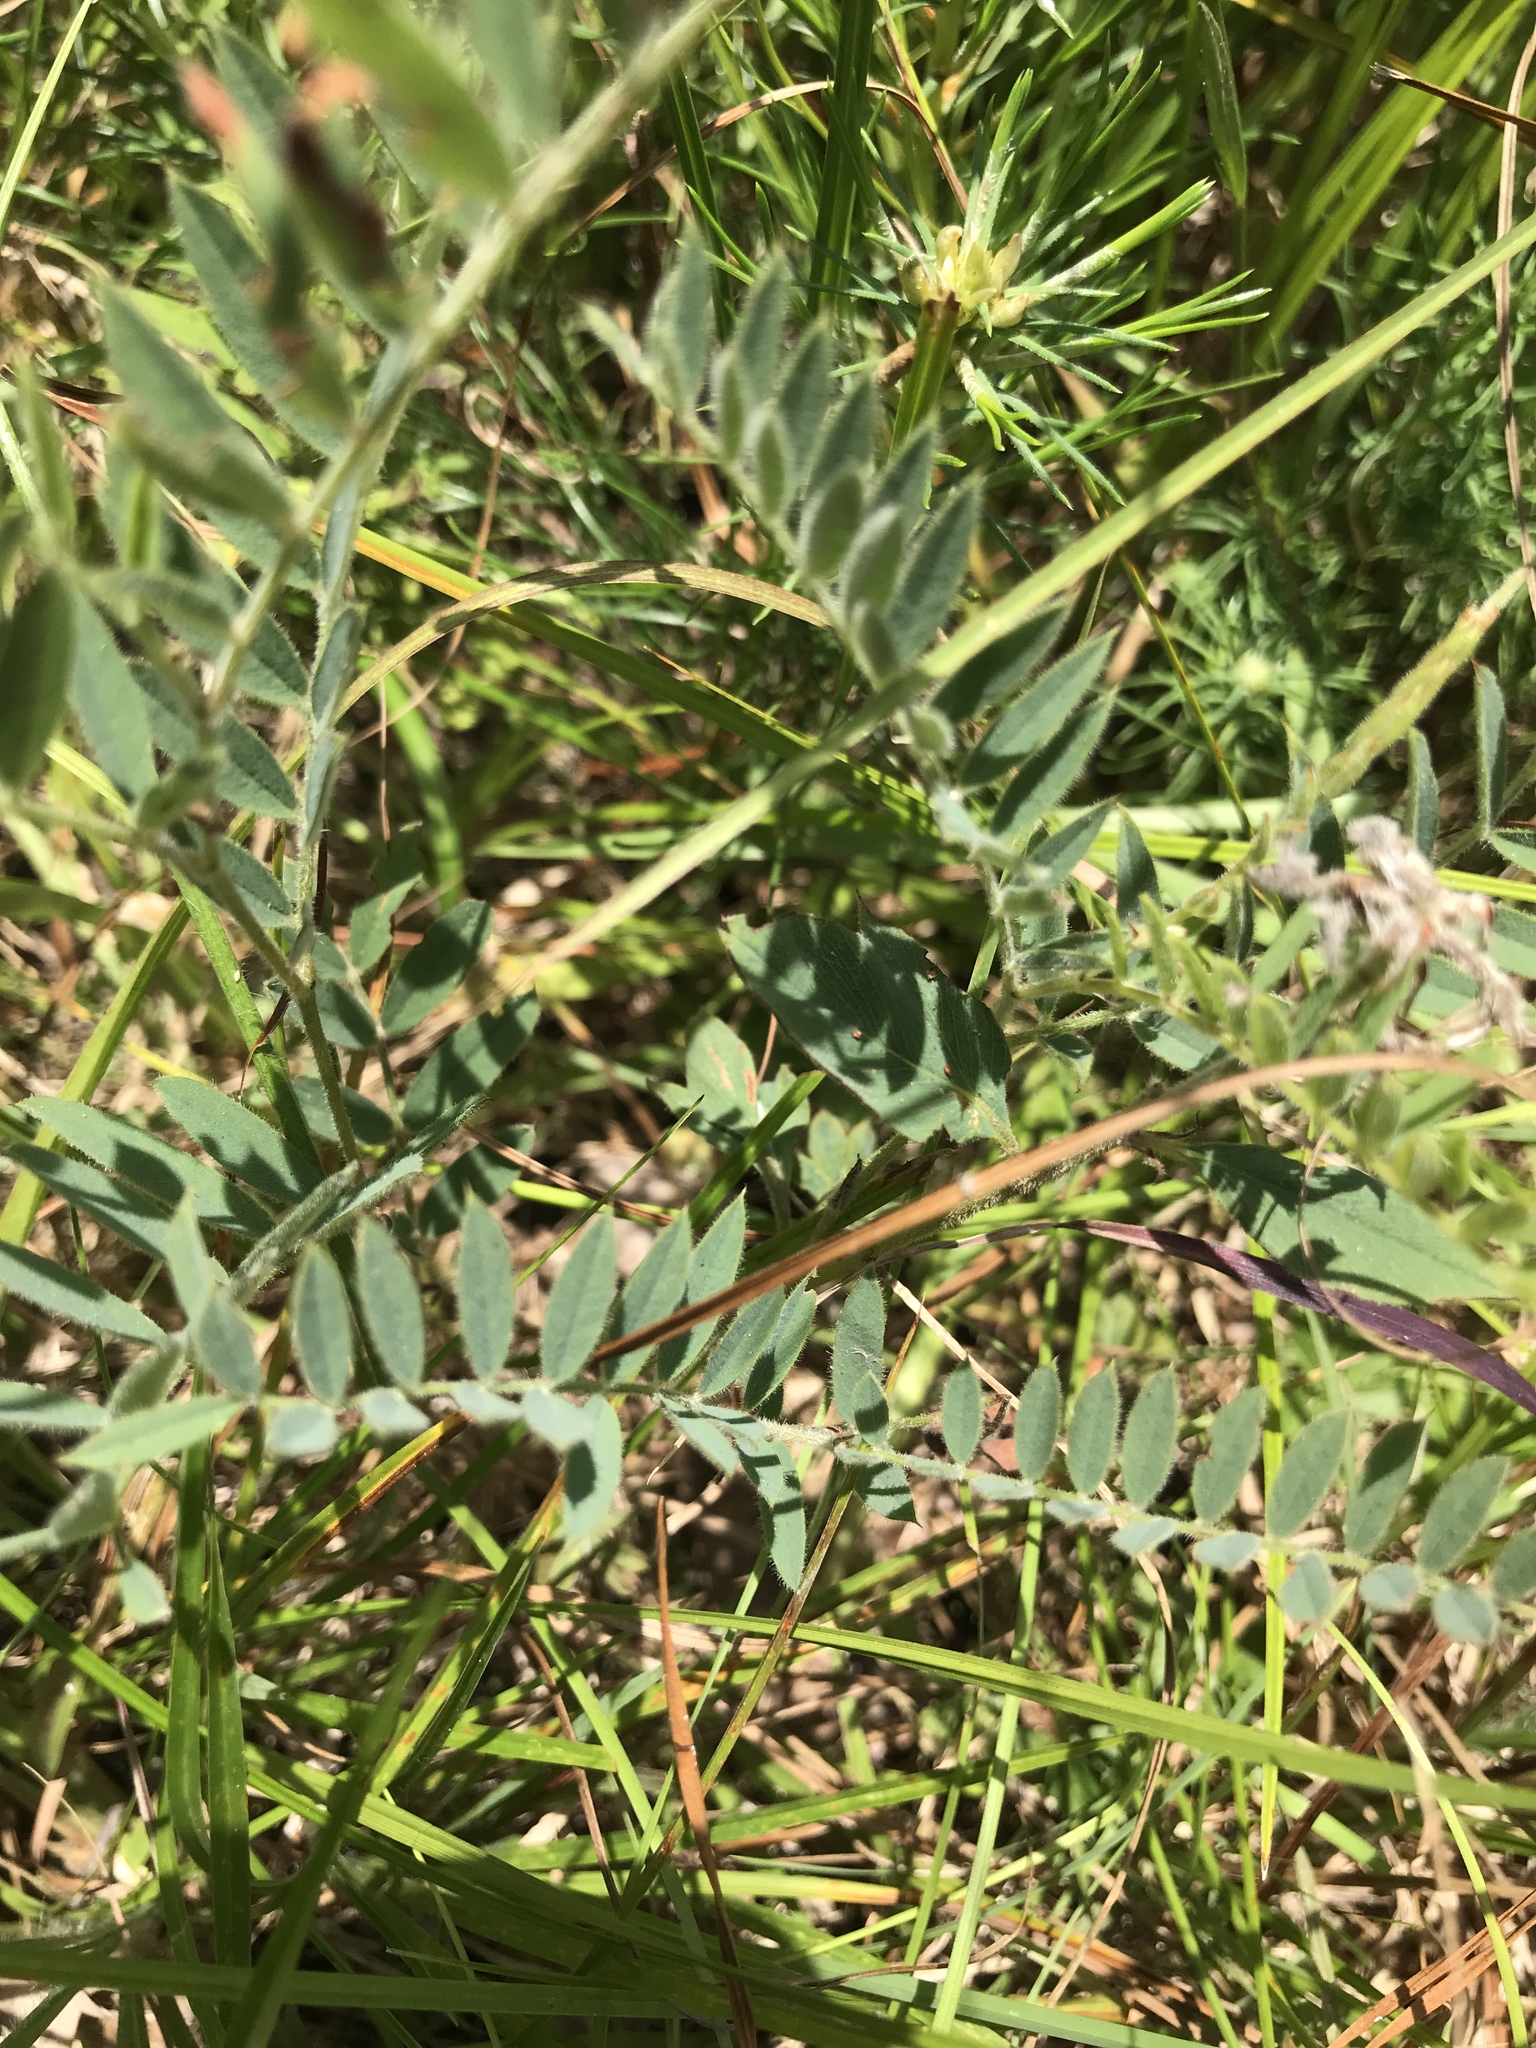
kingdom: Plantae
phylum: Tracheophyta
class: Magnoliopsida
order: Fabales
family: Fabaceae
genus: Tephrosia
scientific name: Tephrosia virginiana
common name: Rabbit-pea
